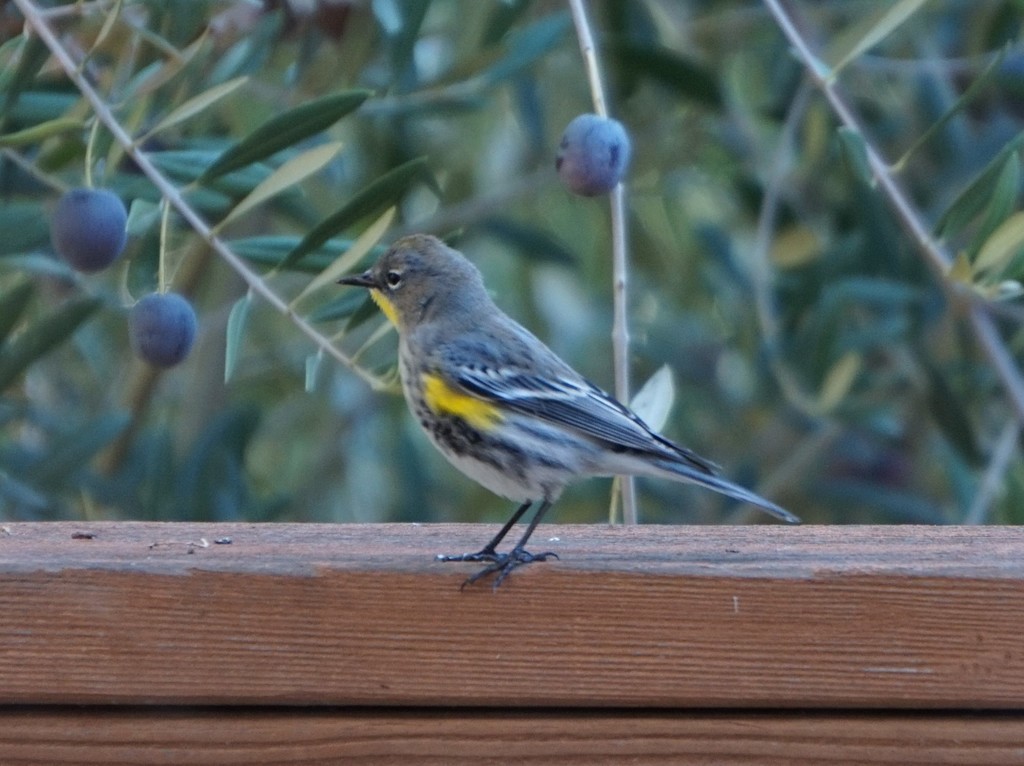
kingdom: Animalia
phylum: Chordata
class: Aves
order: Passeriformes
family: Parulidae
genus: Setophaga
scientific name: Setophaga coronata
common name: Myrtle warbler
